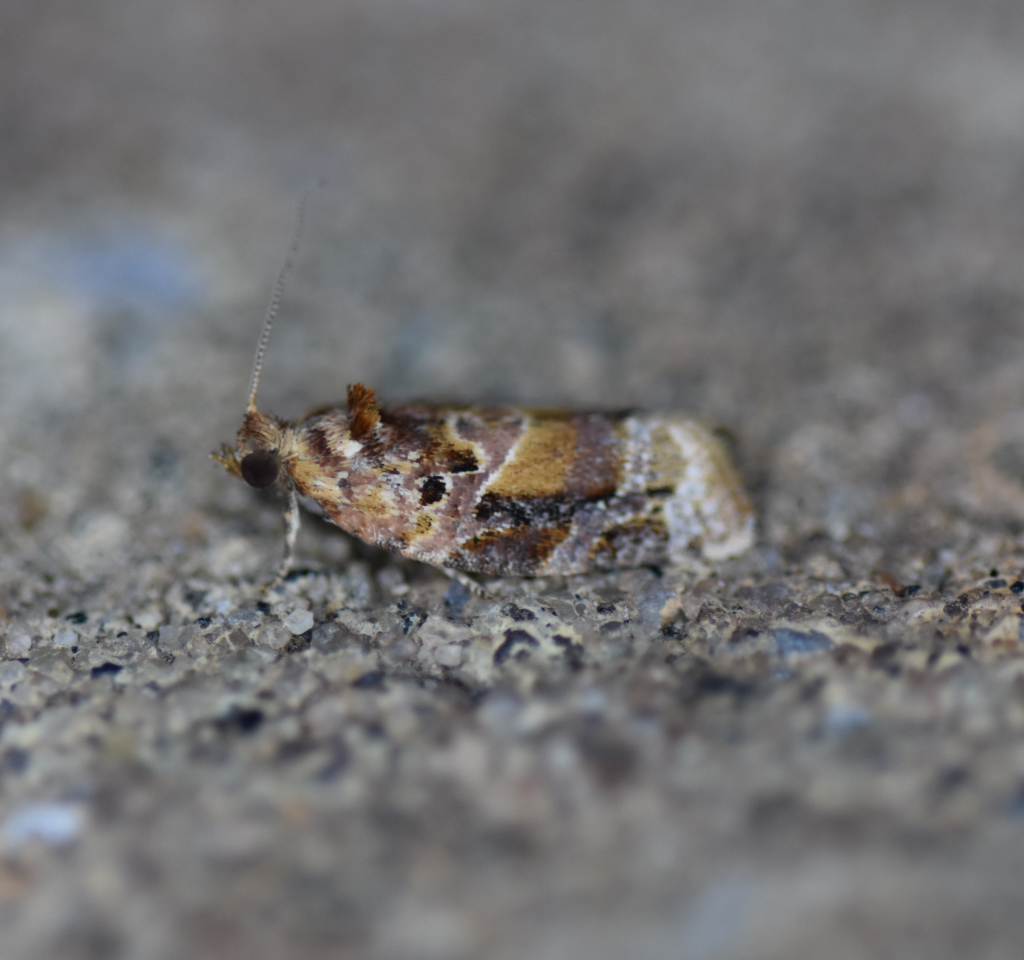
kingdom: Animalia
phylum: Arthropoda
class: Insecta
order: Lepidoptera
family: Tortricidae
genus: Argyrotaenia
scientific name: Argyrotaenia velutinana
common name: Red-banded leafroller moth
